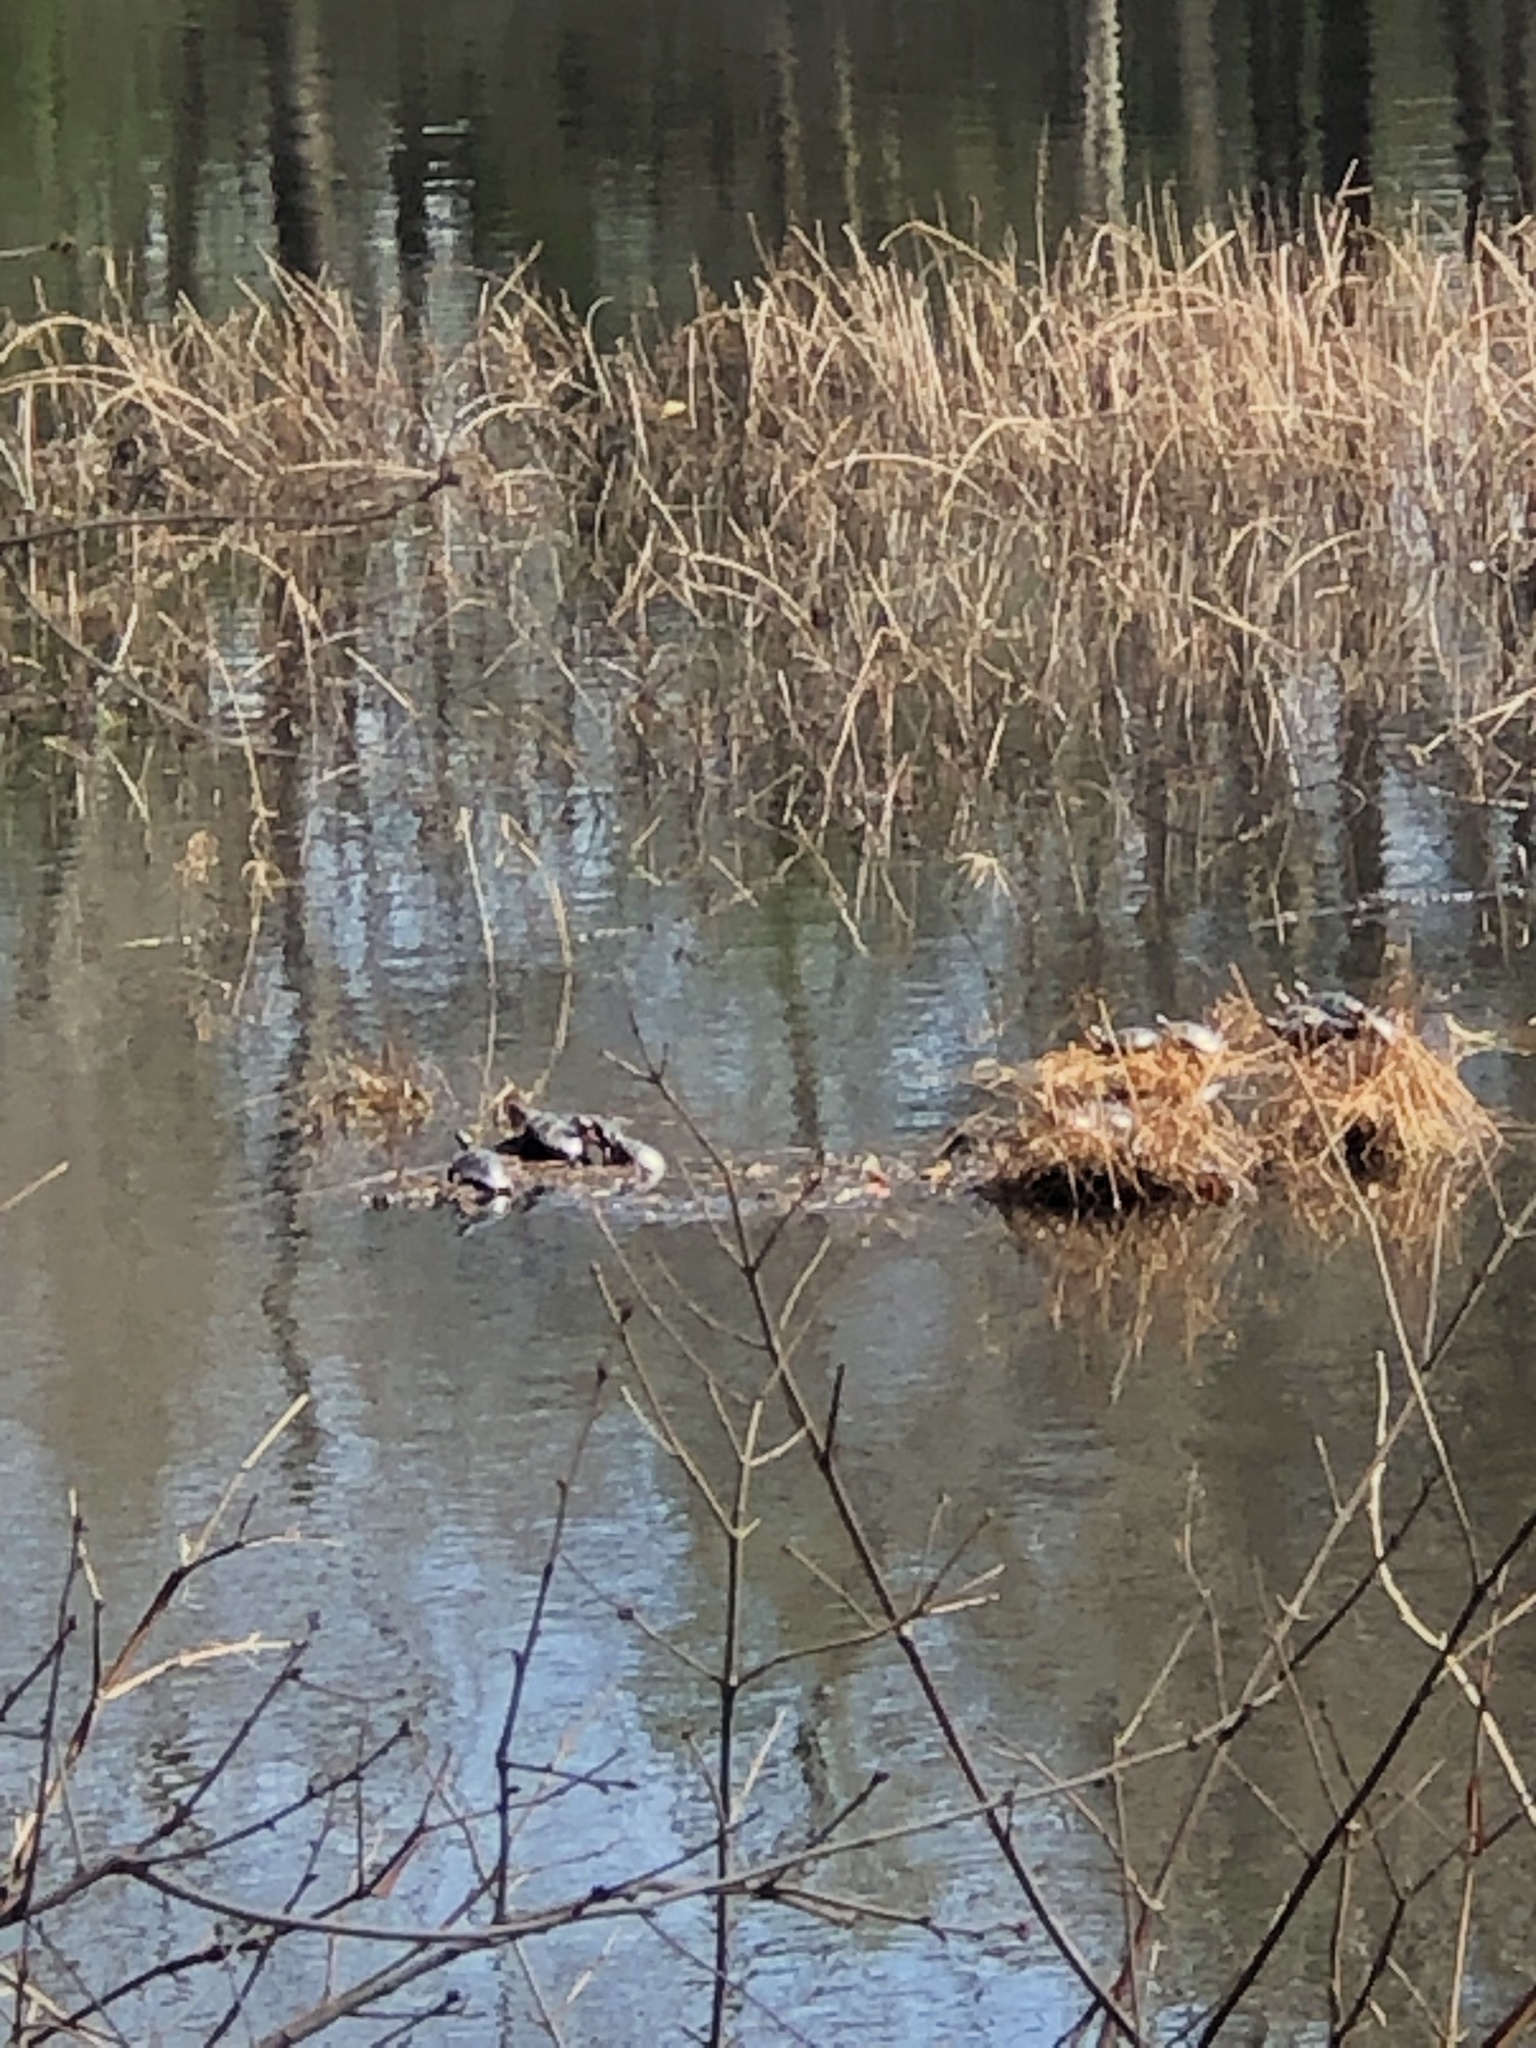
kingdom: Animalia
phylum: Chordata
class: Testudines
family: Emydidae
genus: Chrysemys
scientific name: Chrysemys picta
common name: Painted turtle
